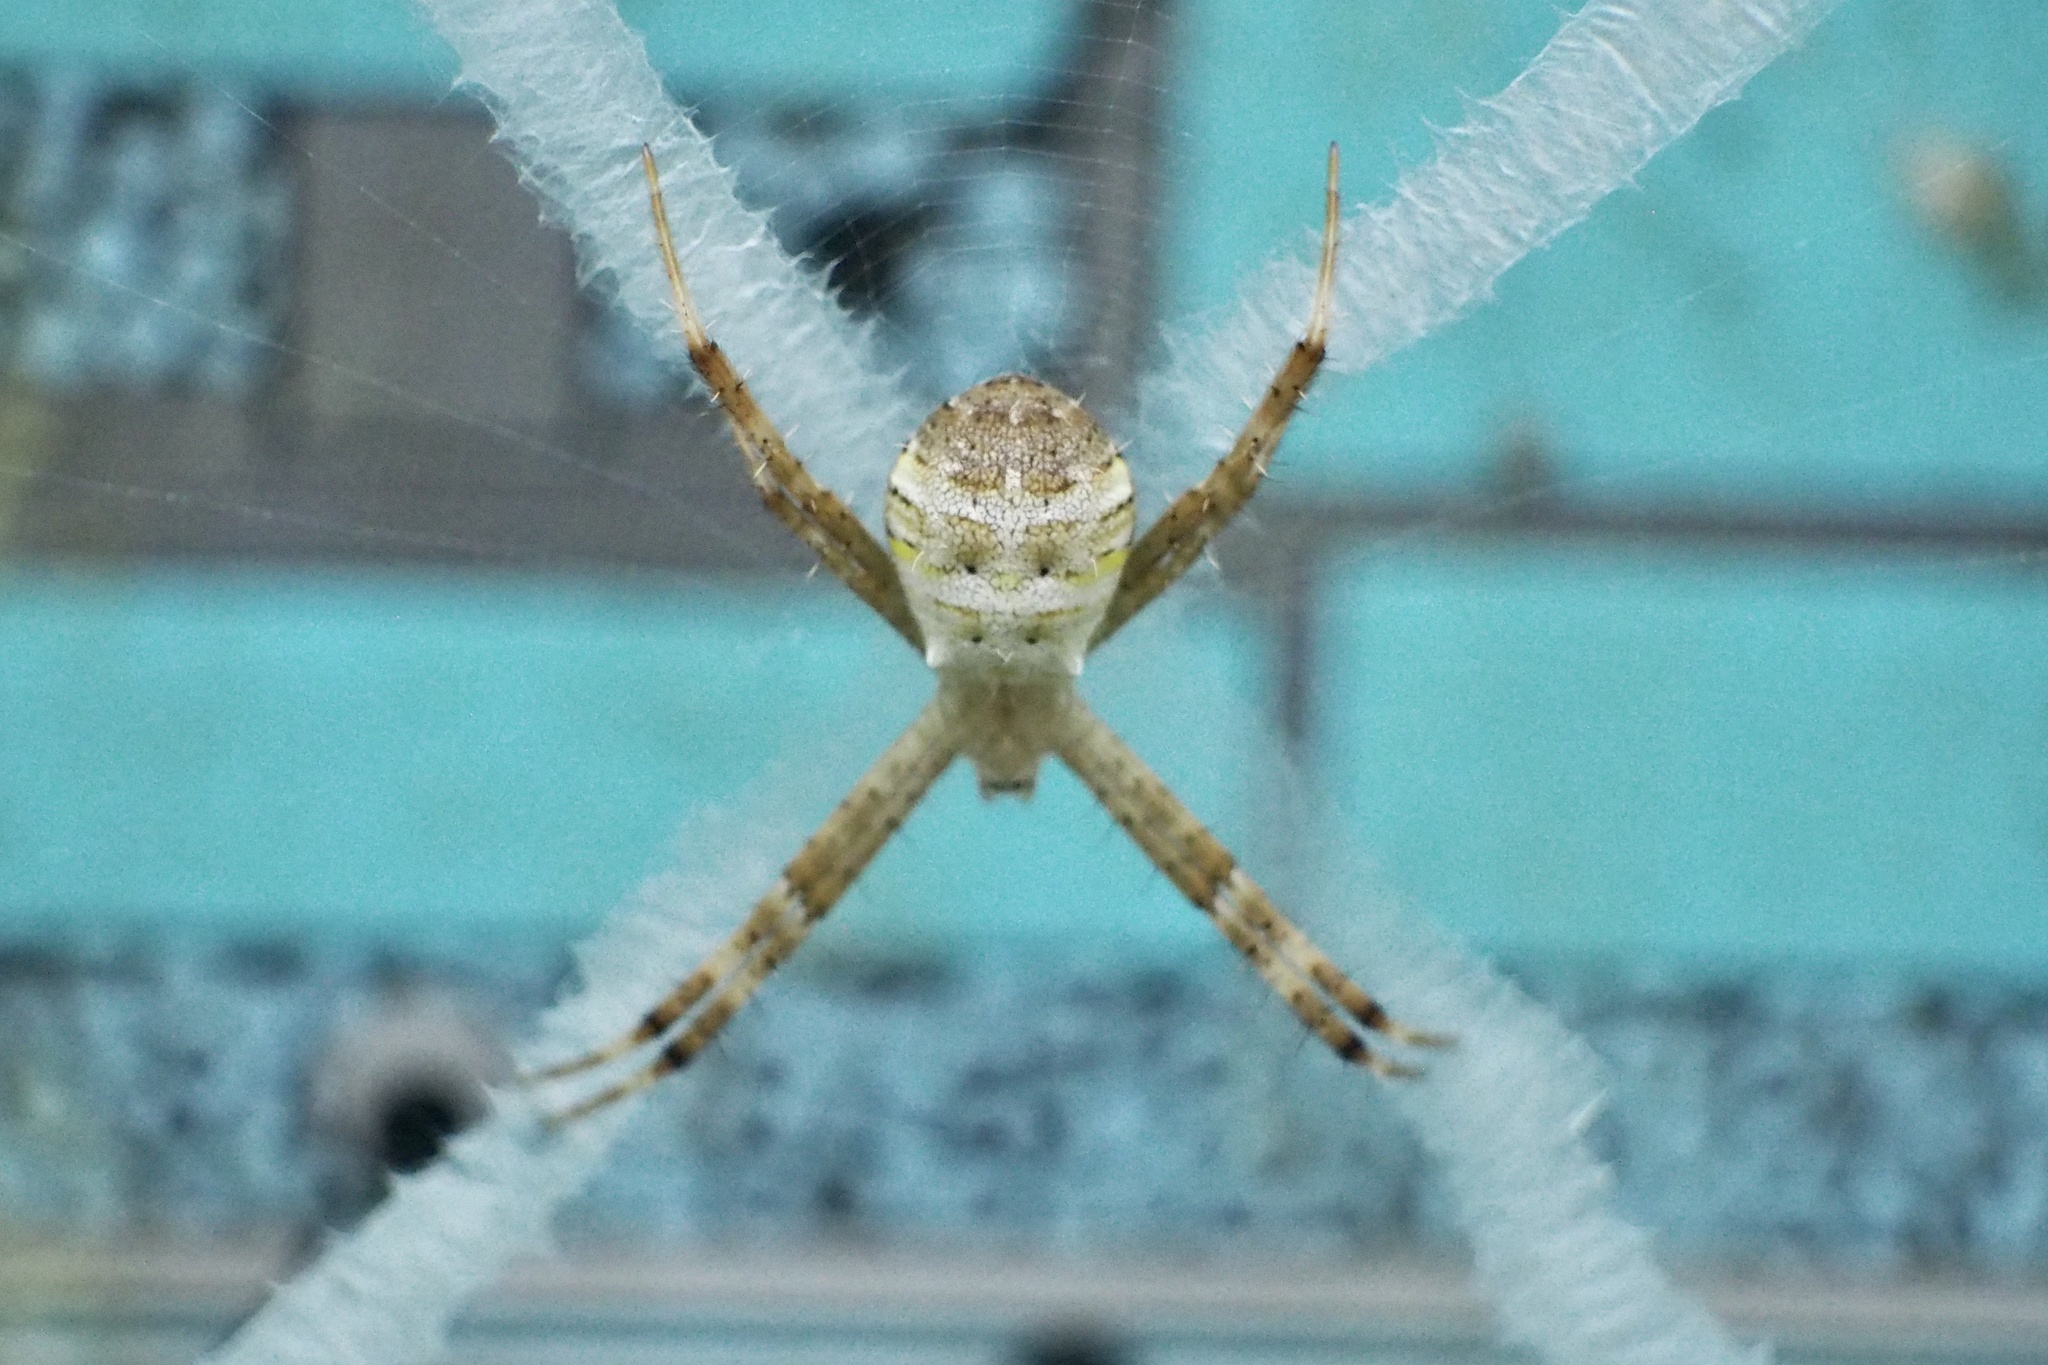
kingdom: Animalia
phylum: Arthropoda
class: Arachnida
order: Araneae
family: Araneidae
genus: Argiope
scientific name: Argiope minuta
